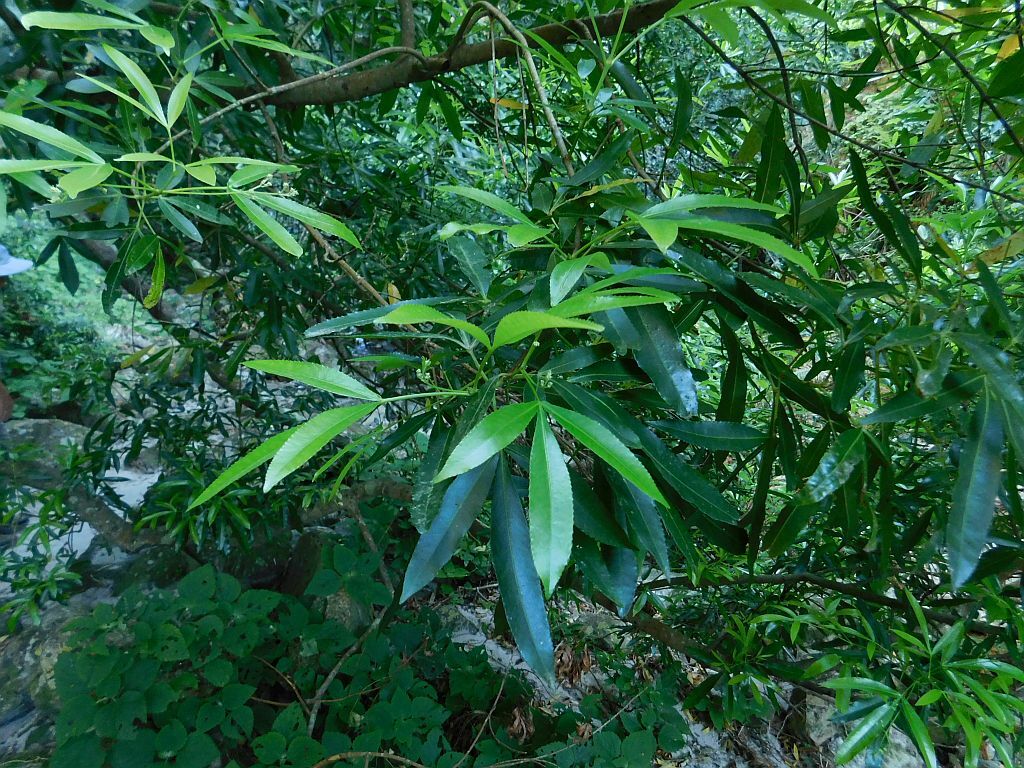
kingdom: Plantae
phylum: Tracheophyta
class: Magnoliopsida
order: Oxalidales
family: Cunoniaceae
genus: Platylophus
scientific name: Platylophus trifoliatus
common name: White alder
